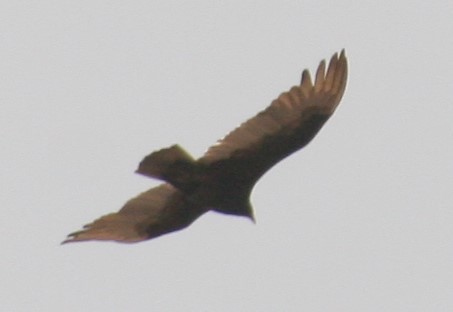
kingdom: Animalia
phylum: Chordata
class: Aves
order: Accipitriformes
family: Cathartidae
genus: Cathartes
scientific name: Cathartes aura
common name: Turkey vulture
